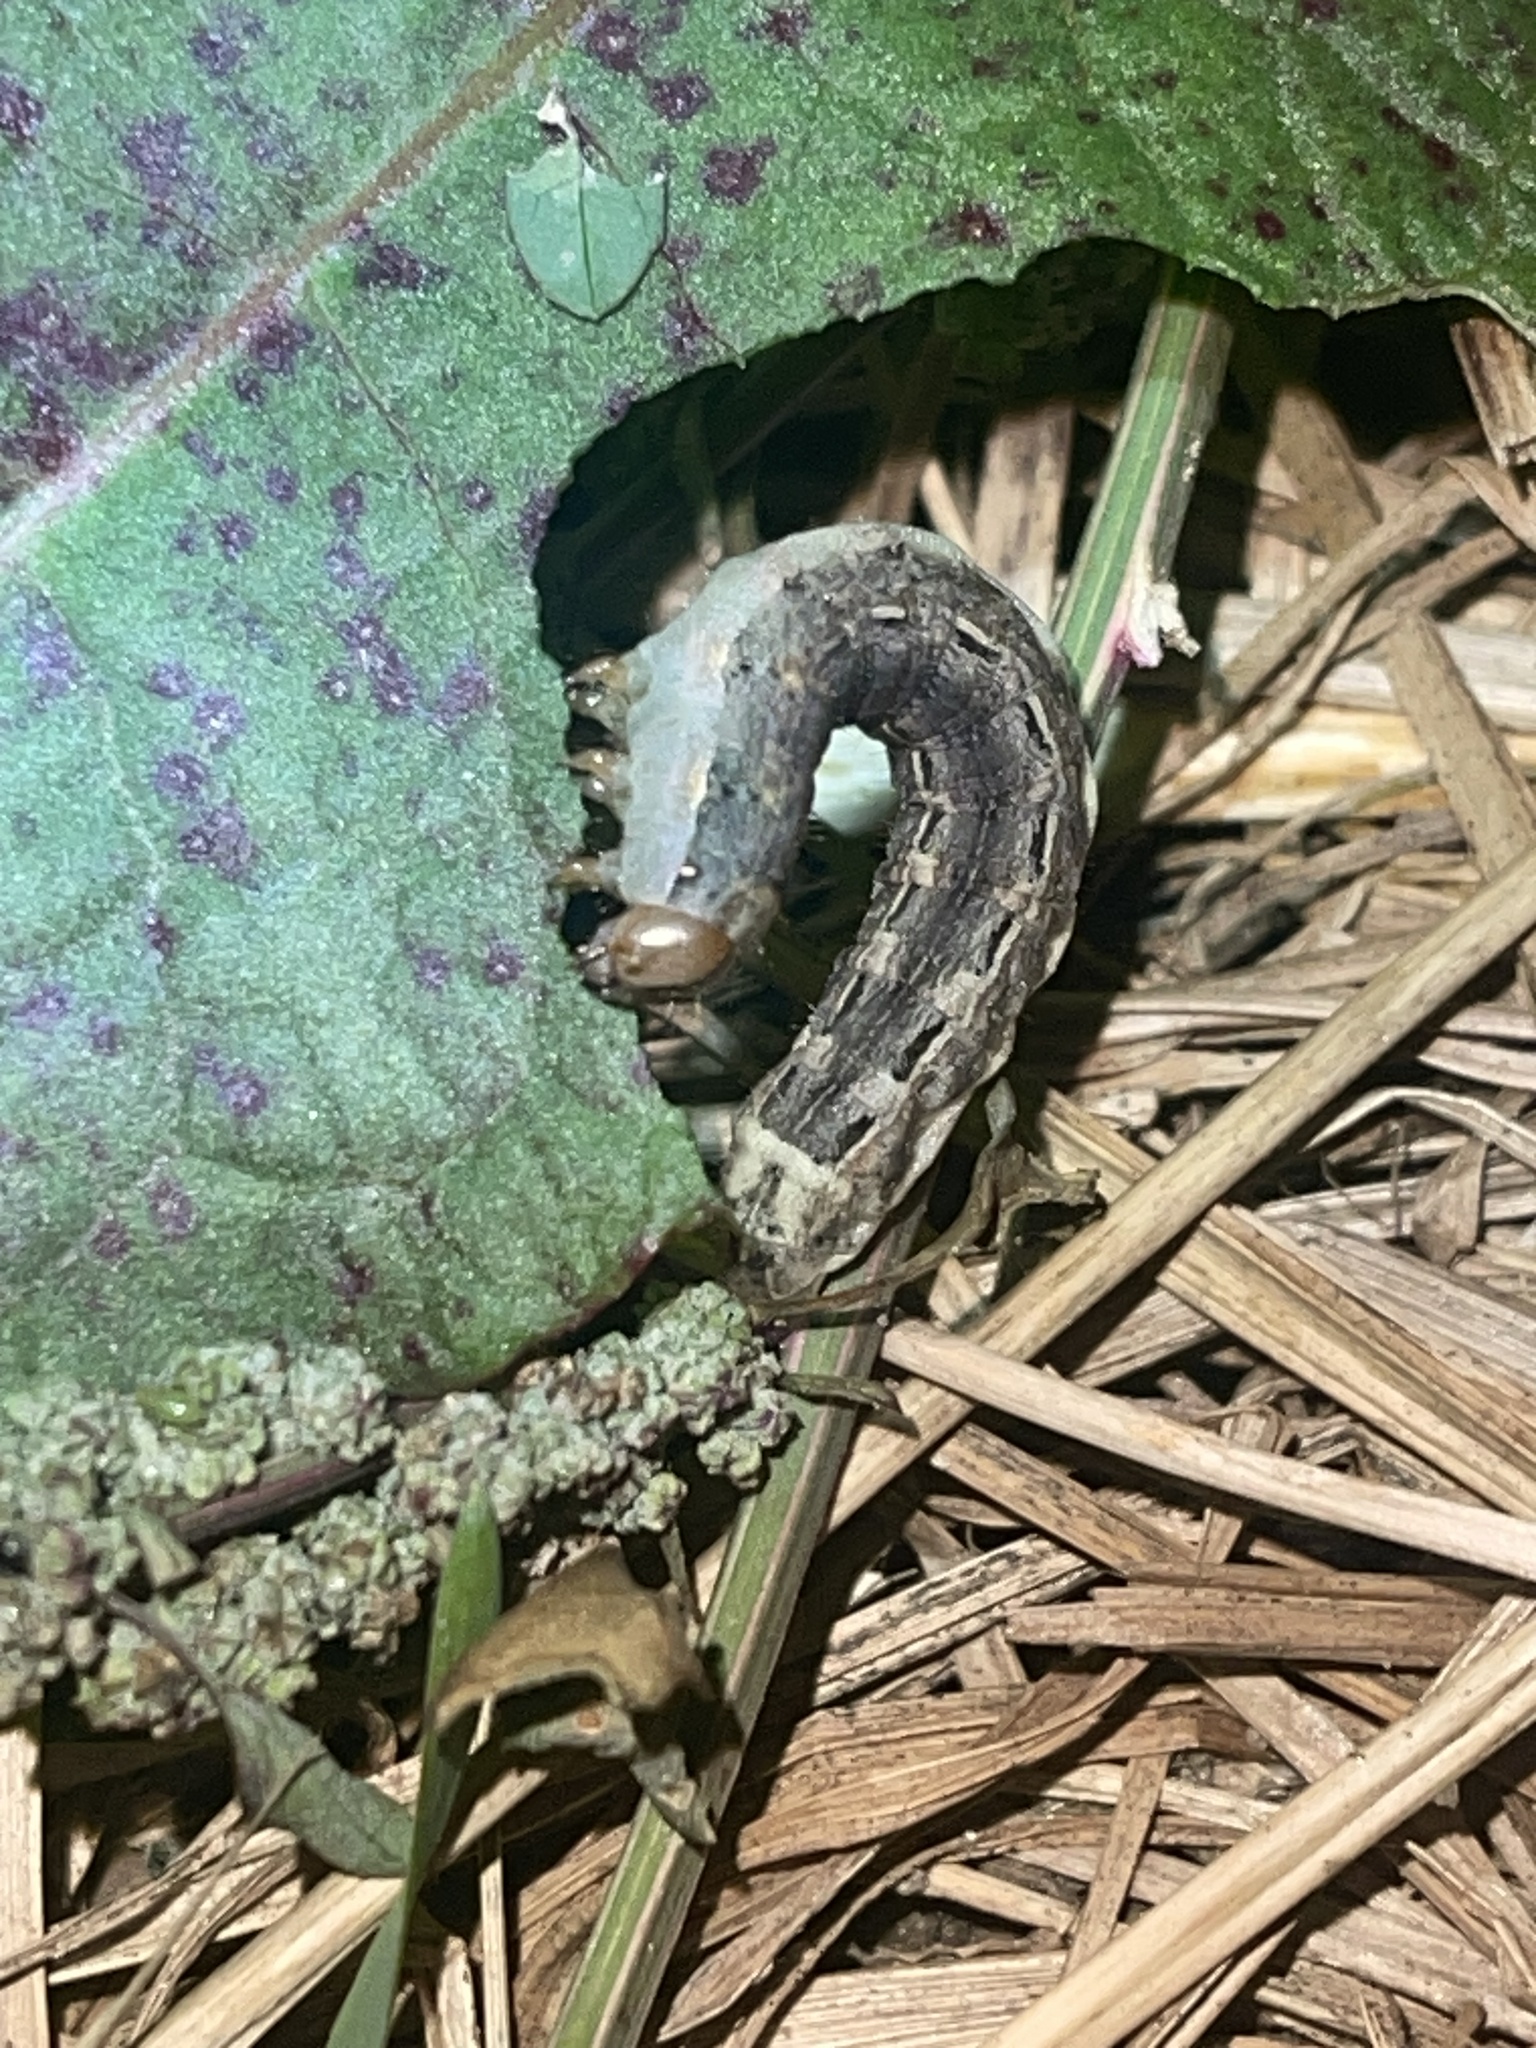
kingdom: Animalia
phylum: Arthropoda
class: Insecta
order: Lepidoptera
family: Noctuidae
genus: Noctua
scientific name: Noctua pronuba
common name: Large yellow underwing
